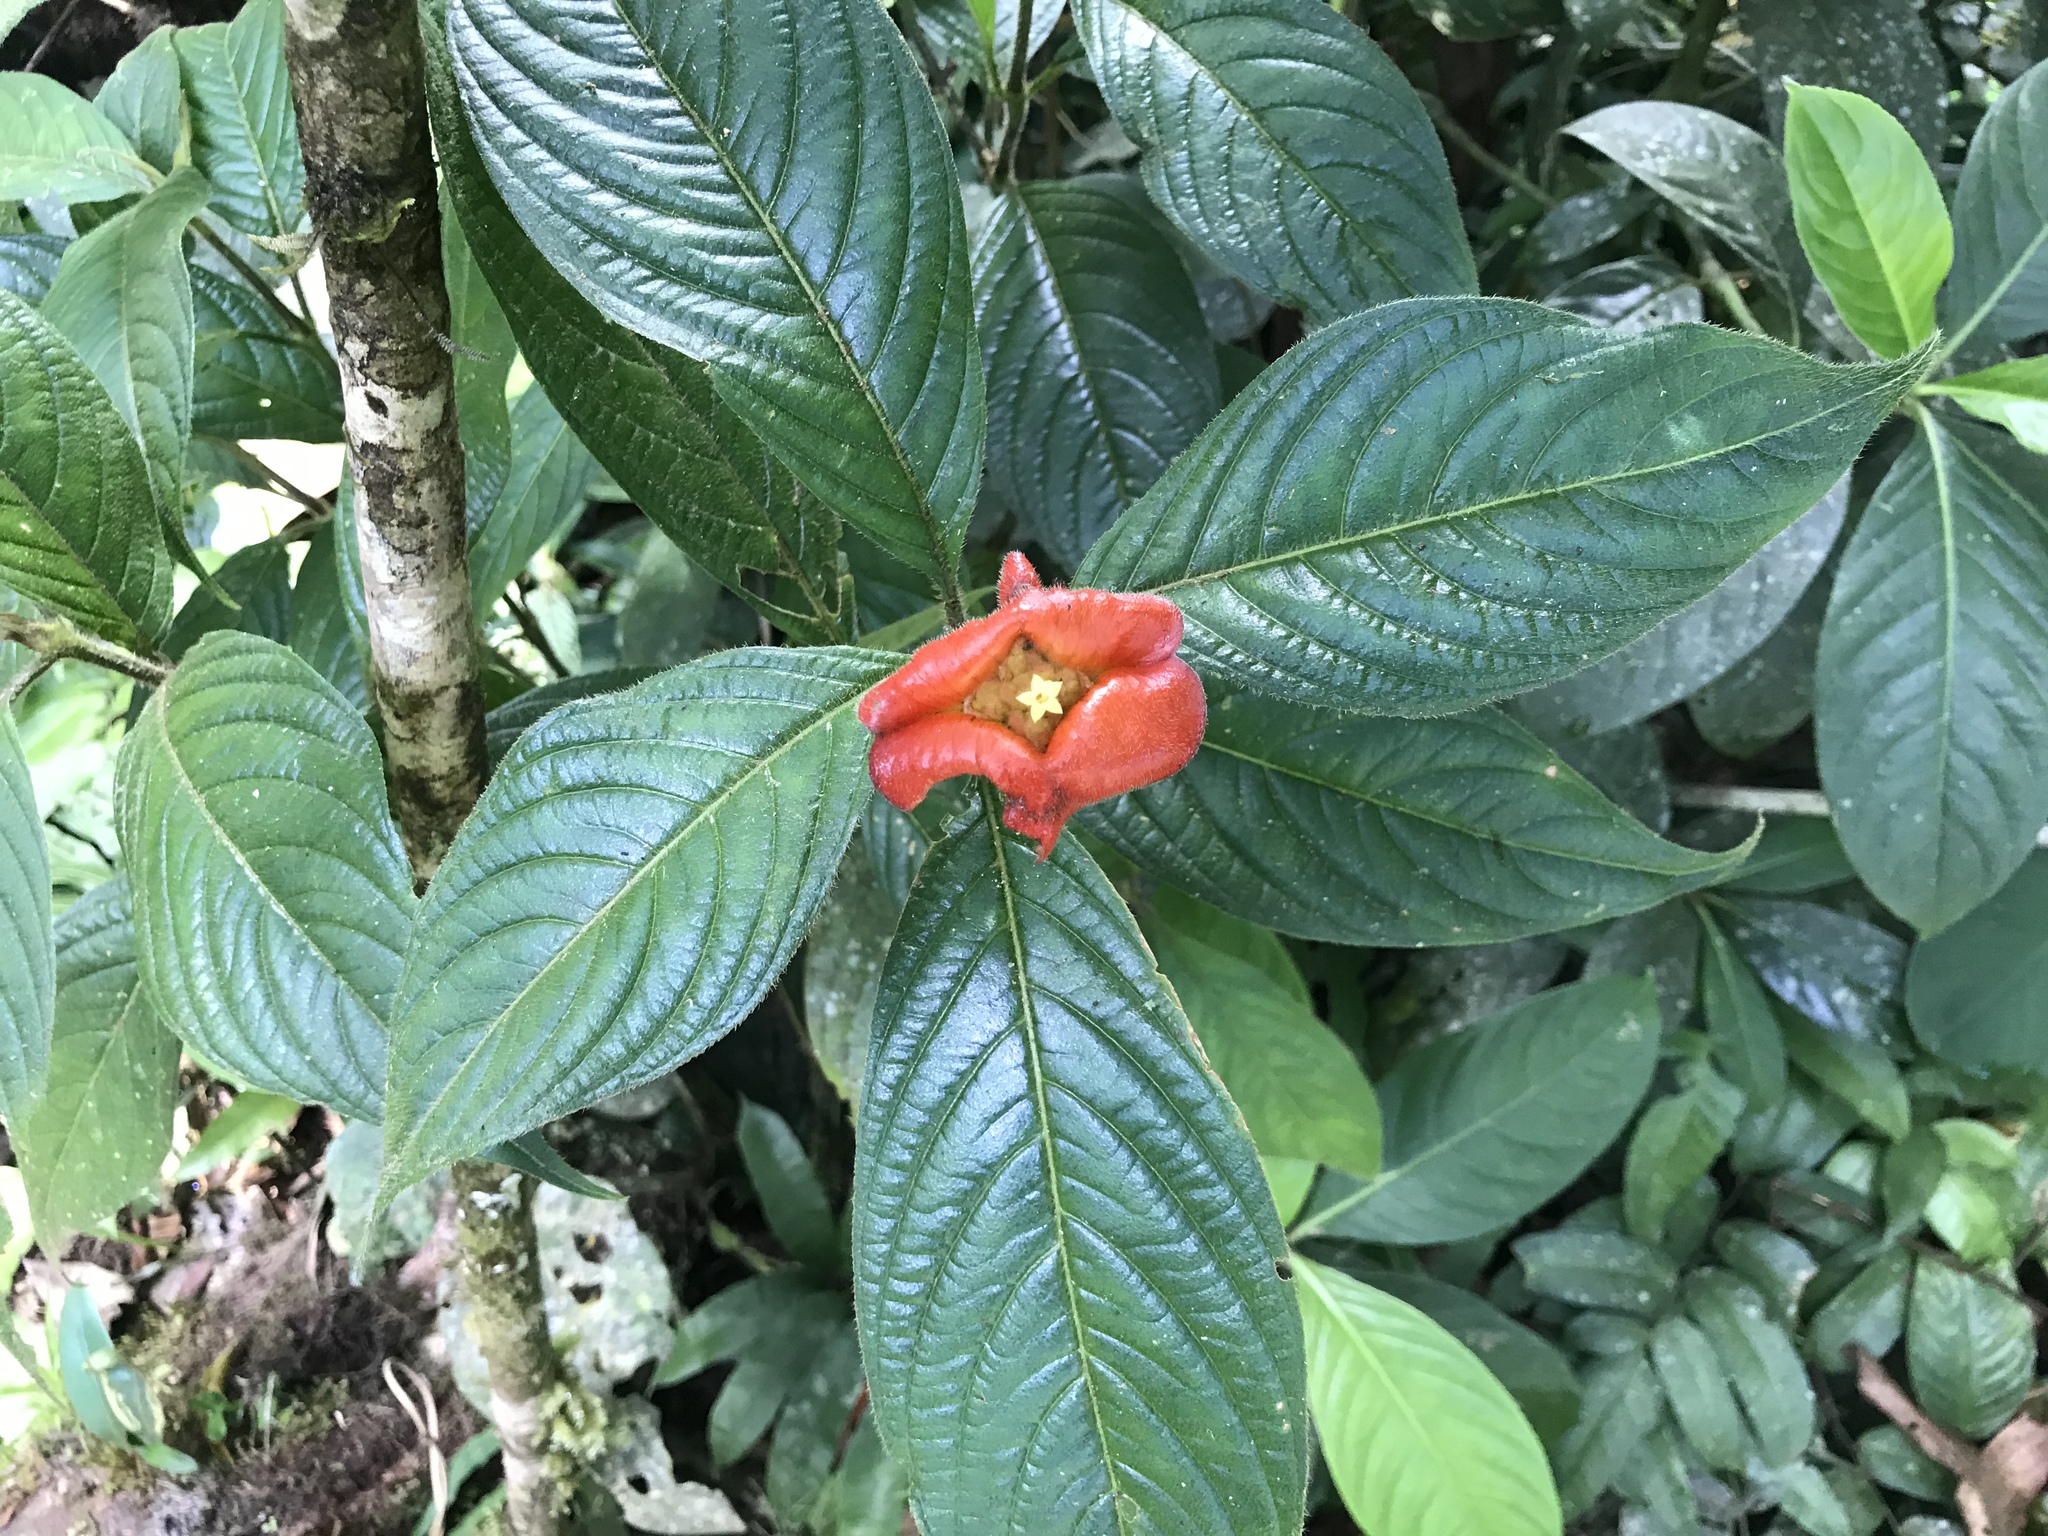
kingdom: Plantae
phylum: Tracheophyta
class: Magnoliopsida
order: Gentianales
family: Rubiaceae
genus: Palicourea
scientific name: Palicourea tomentosa
